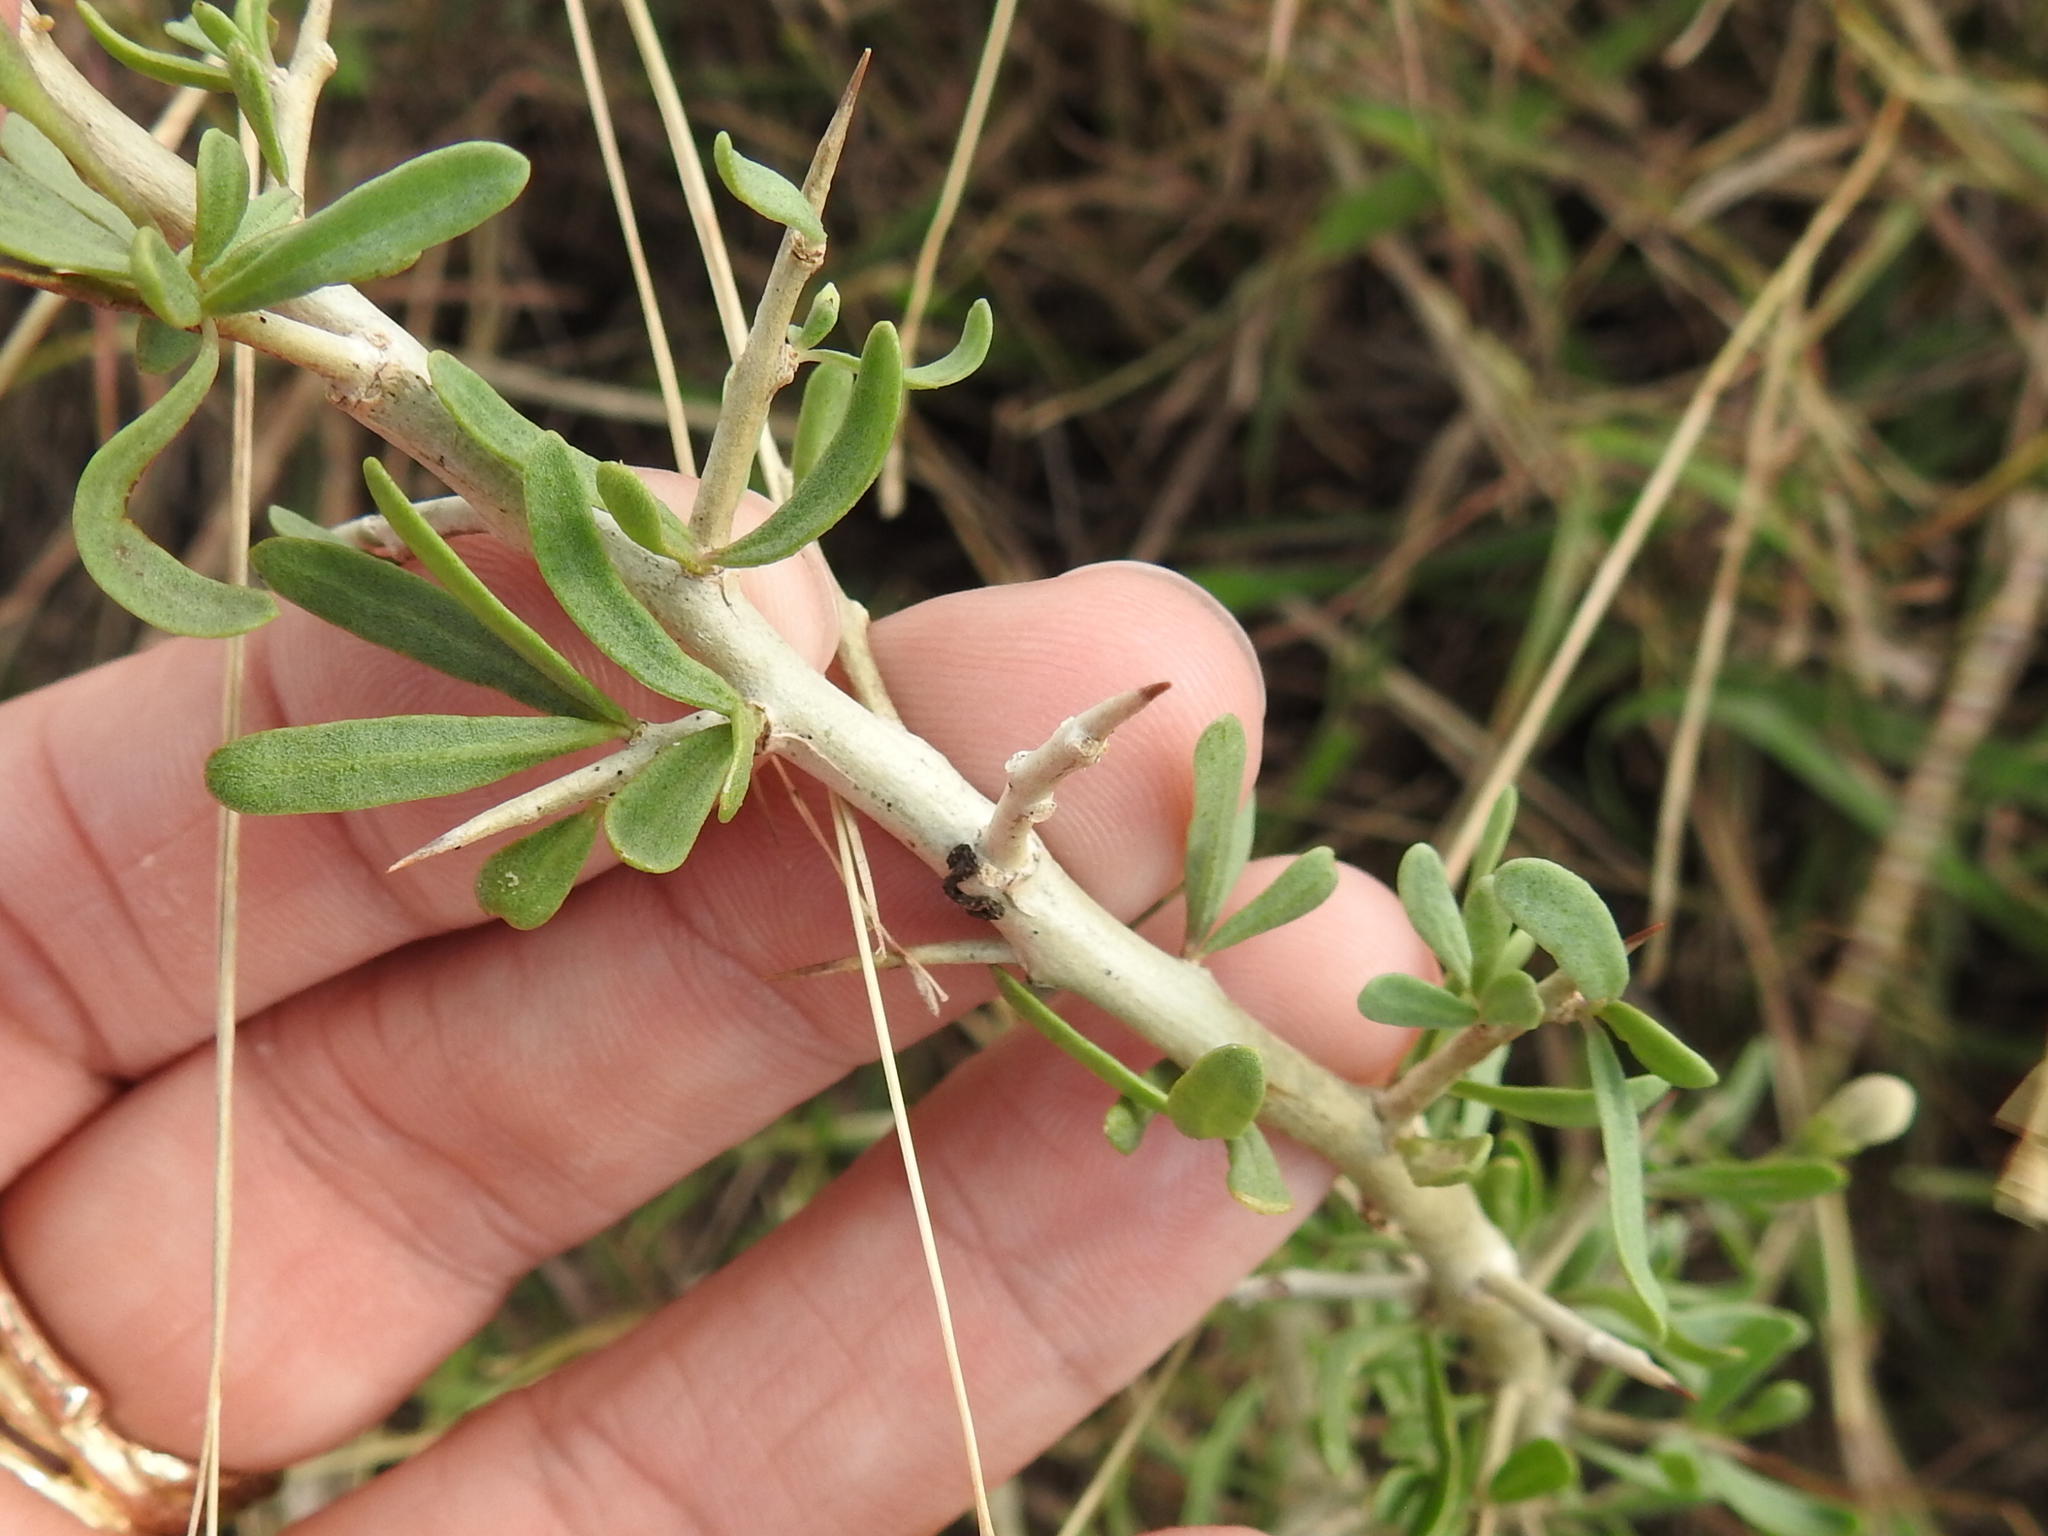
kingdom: Plantae
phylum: Tracheophyta
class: Magnoliopsida
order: Solanales
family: Solanaceae
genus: Lycium
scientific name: Lycium carolinianum
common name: Christmasberry
